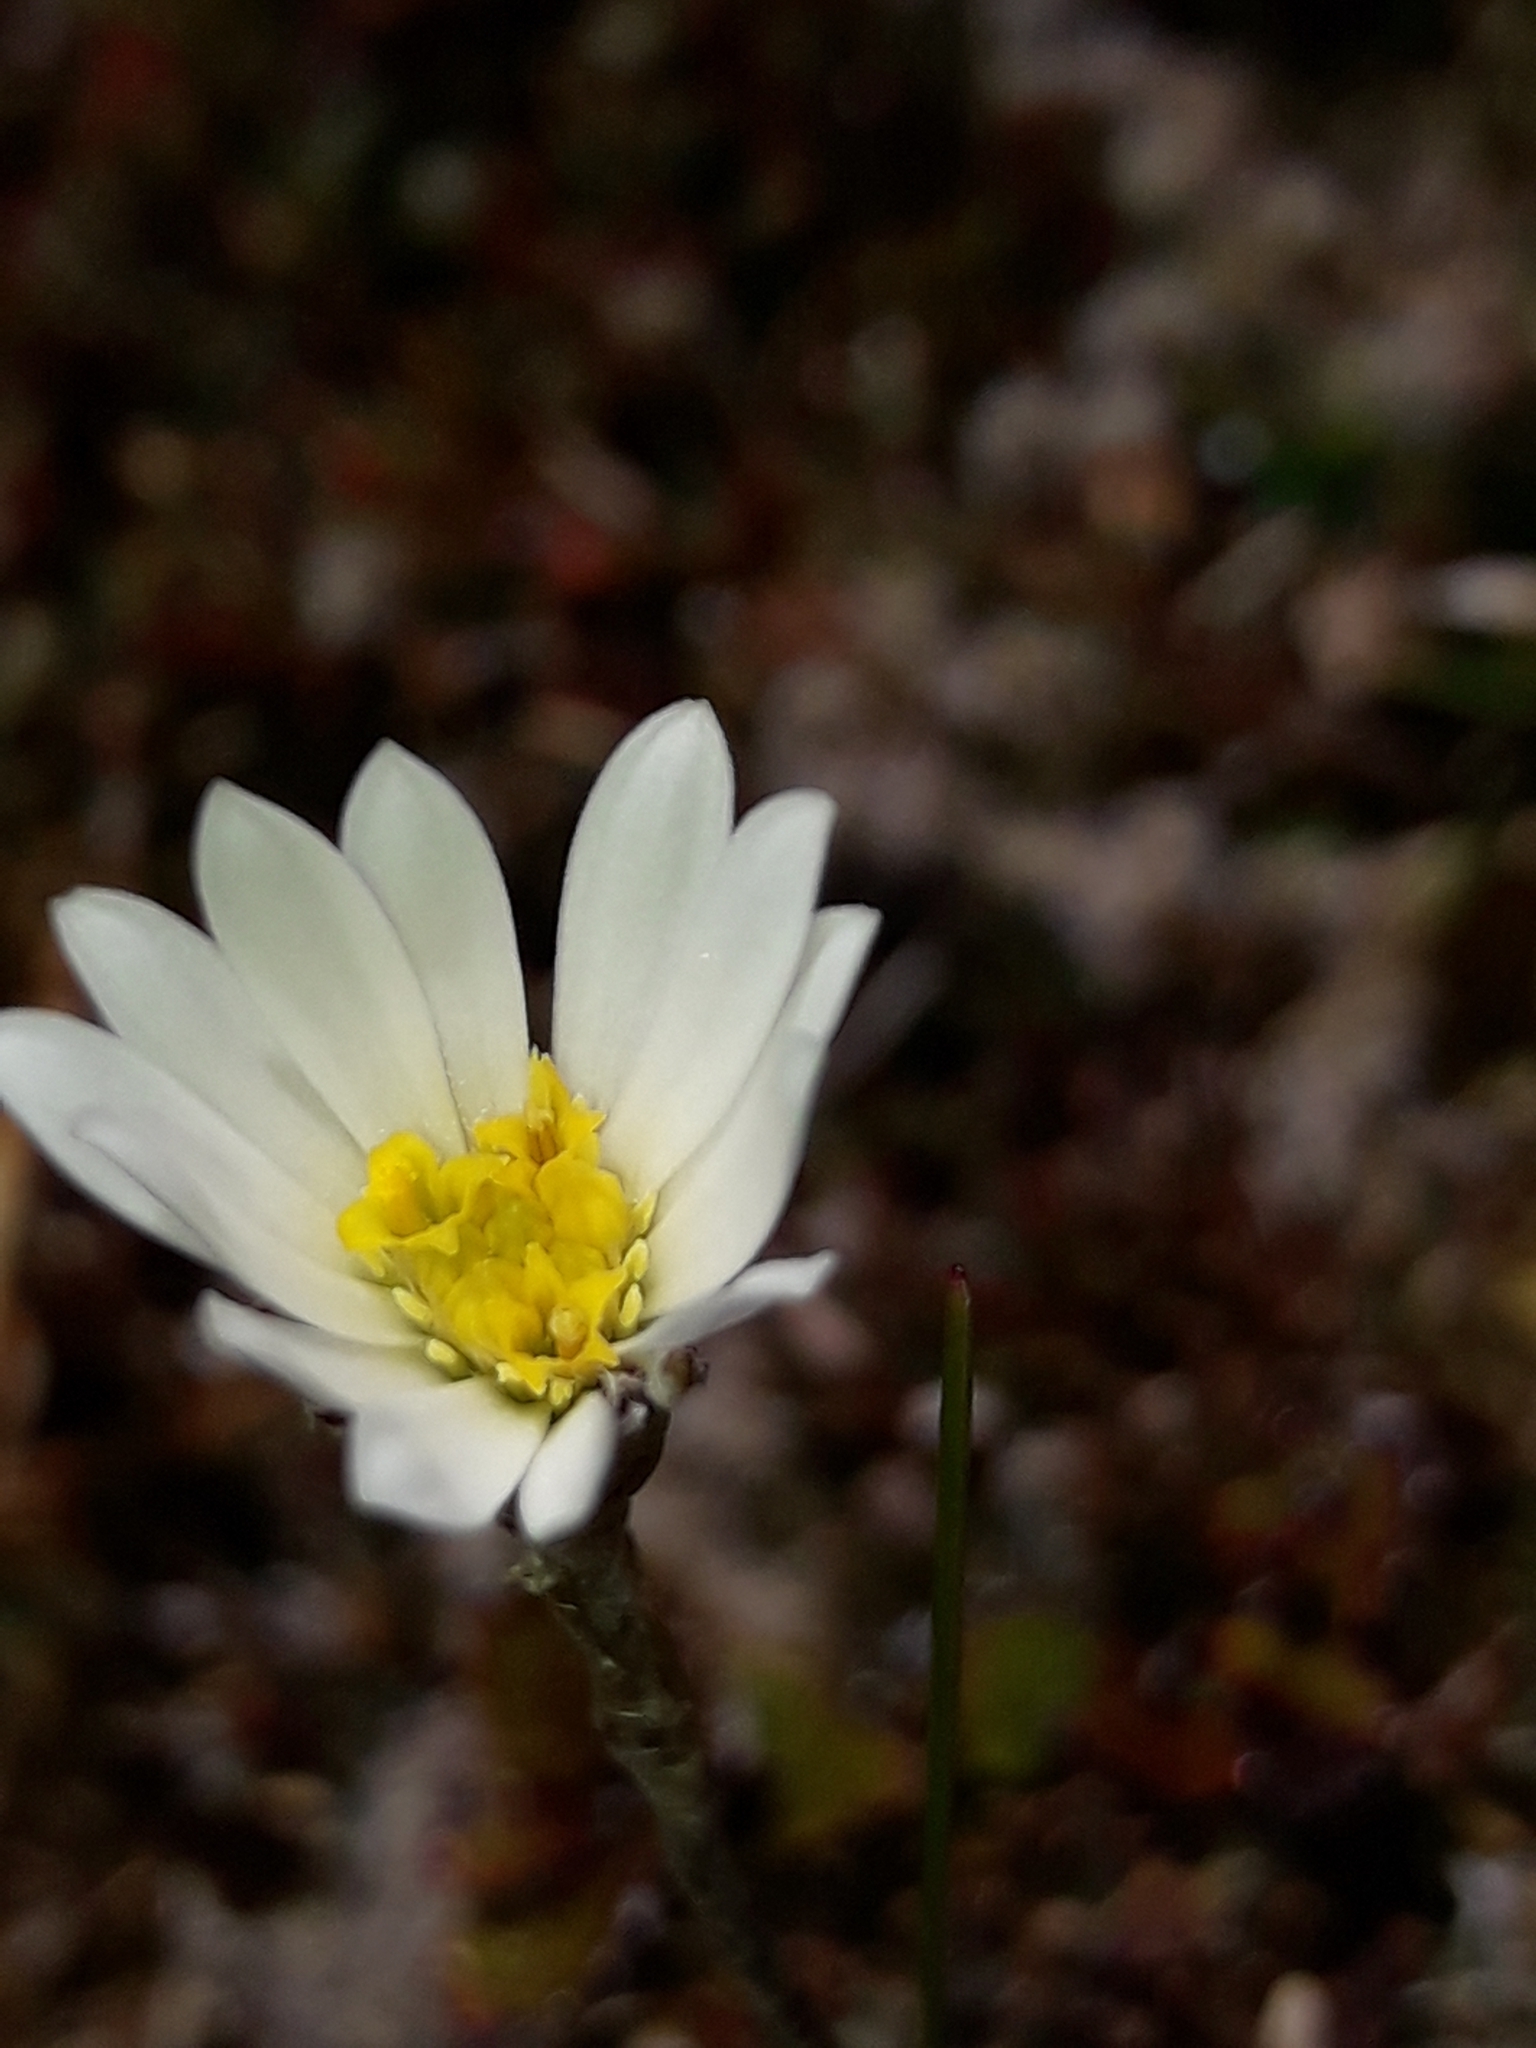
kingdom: Plantae
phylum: Tracheophyta
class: Magnoliopsida
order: Asterales
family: Asteraceae
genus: Celmisia
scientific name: Celmisia laricifolia
